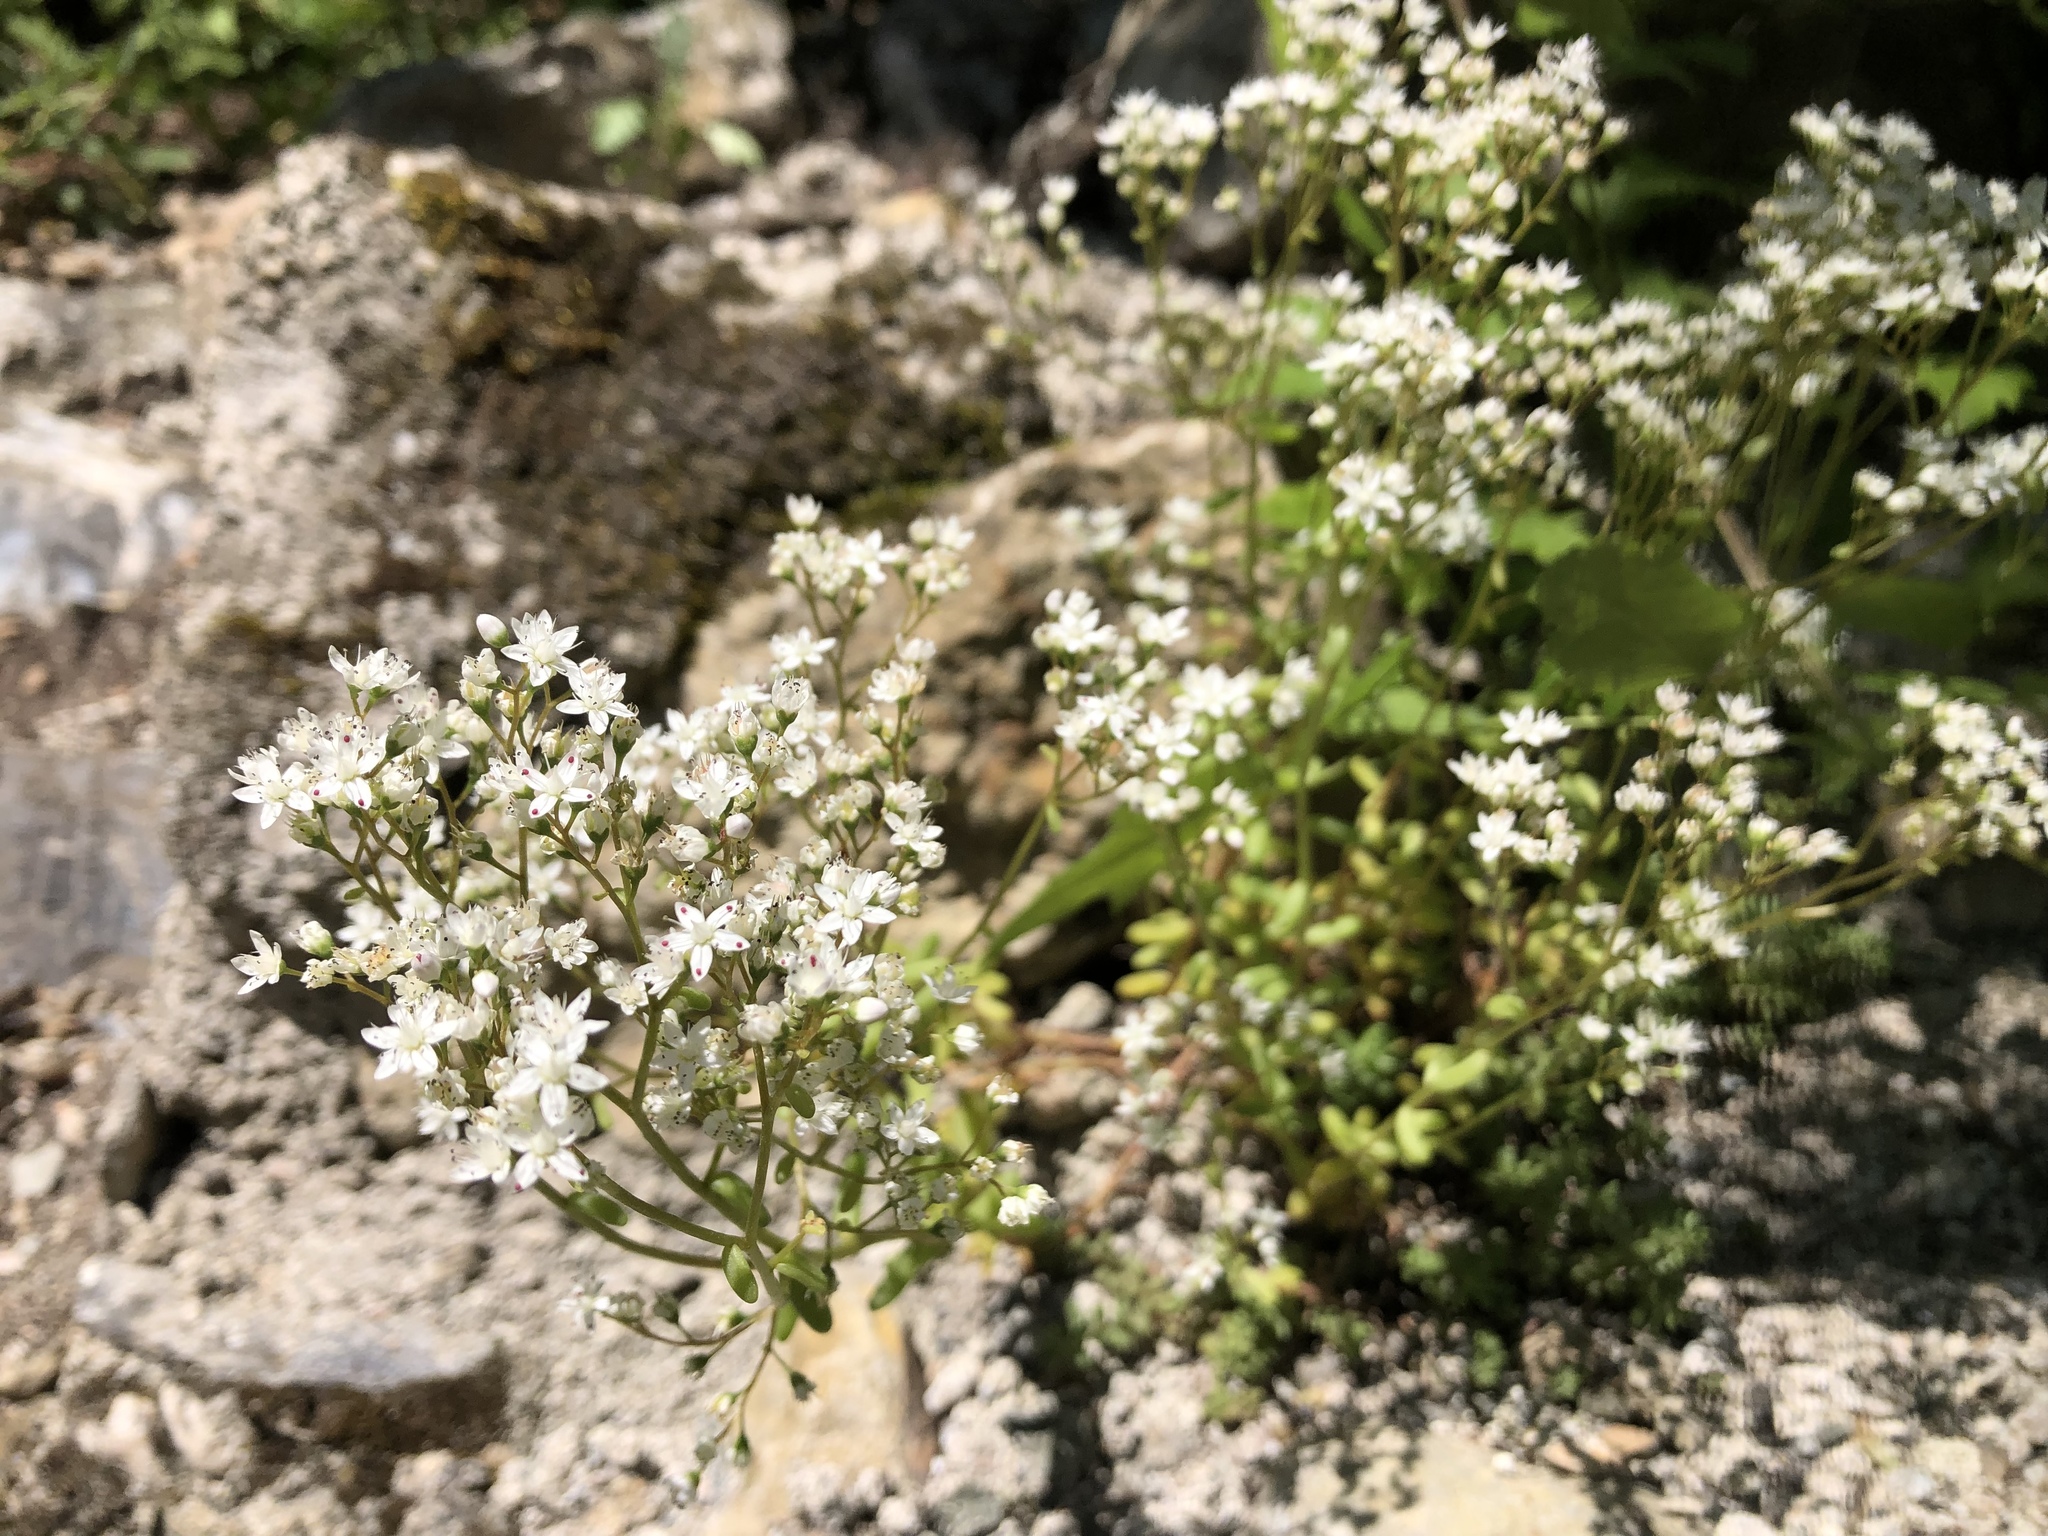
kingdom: Plantae
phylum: Tracheophyta
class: Magnoliopsida
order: Saxifragales
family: Crassulaceae
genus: Sedum
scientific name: Sedum album
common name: White stonecrop
